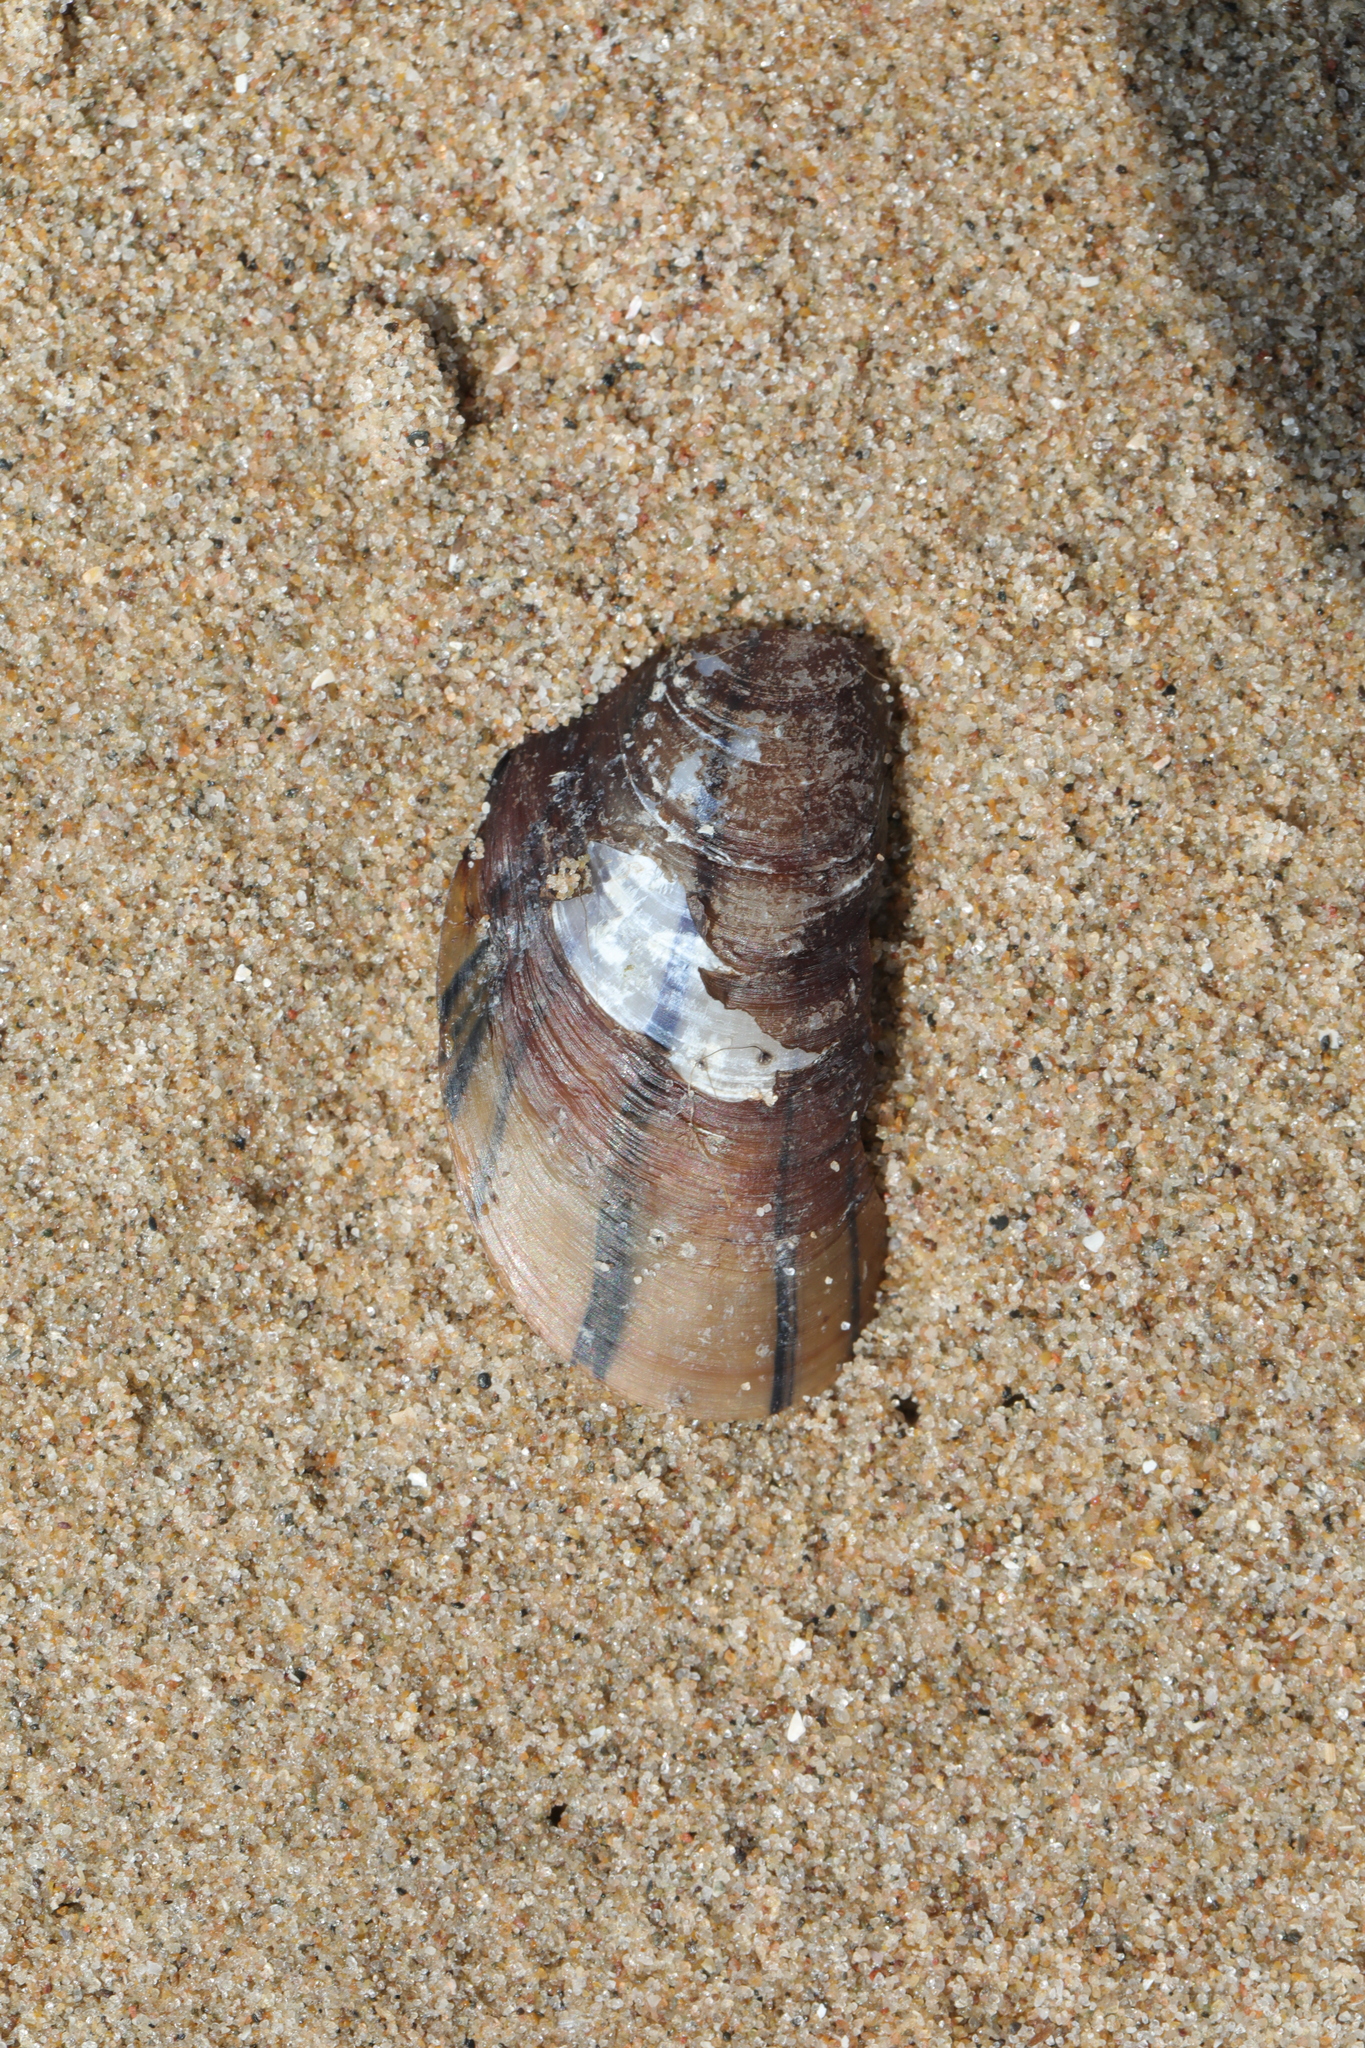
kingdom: Animalia
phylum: Mollusca
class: Bivalvia
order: Mytilida
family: Mytilidae
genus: Mytilus
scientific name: Mytilus edulis
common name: Blue mussel
